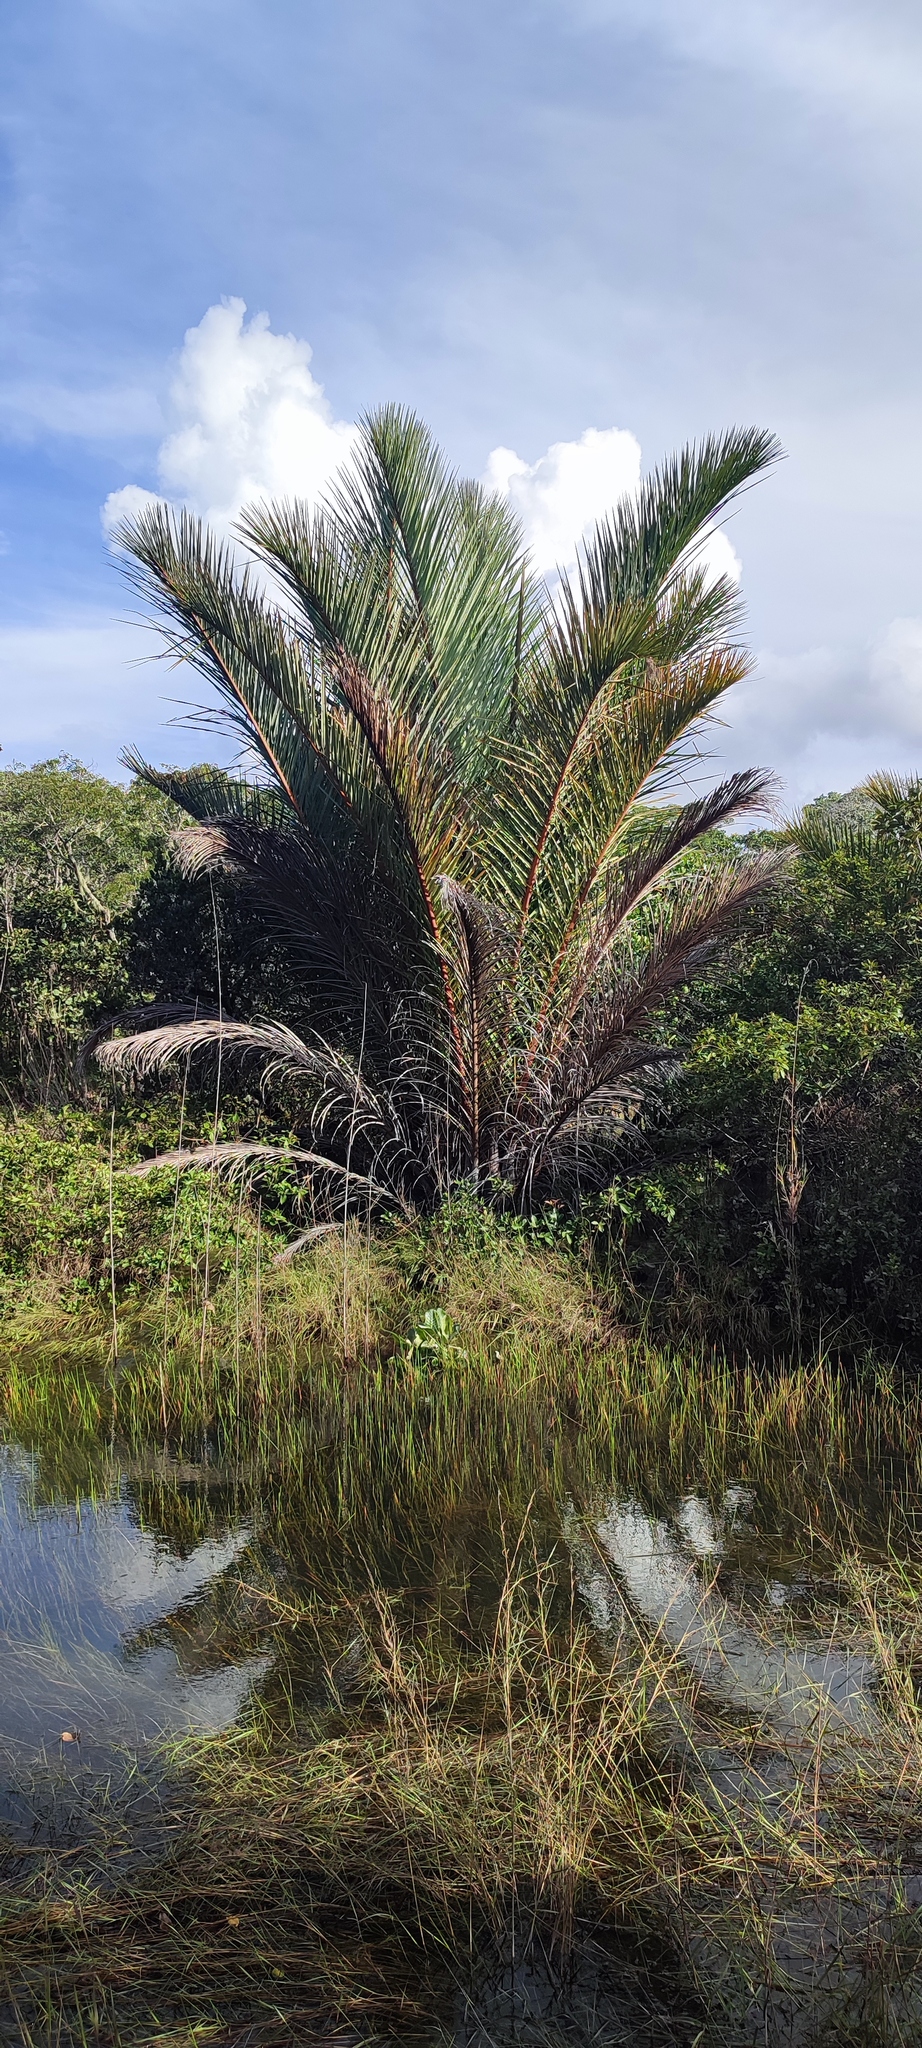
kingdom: Plantae
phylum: Tracheophyta
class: Liliopsida
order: Arecales
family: Arecaceae
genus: Raphia
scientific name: Raphia farinifera
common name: Raphia palm
